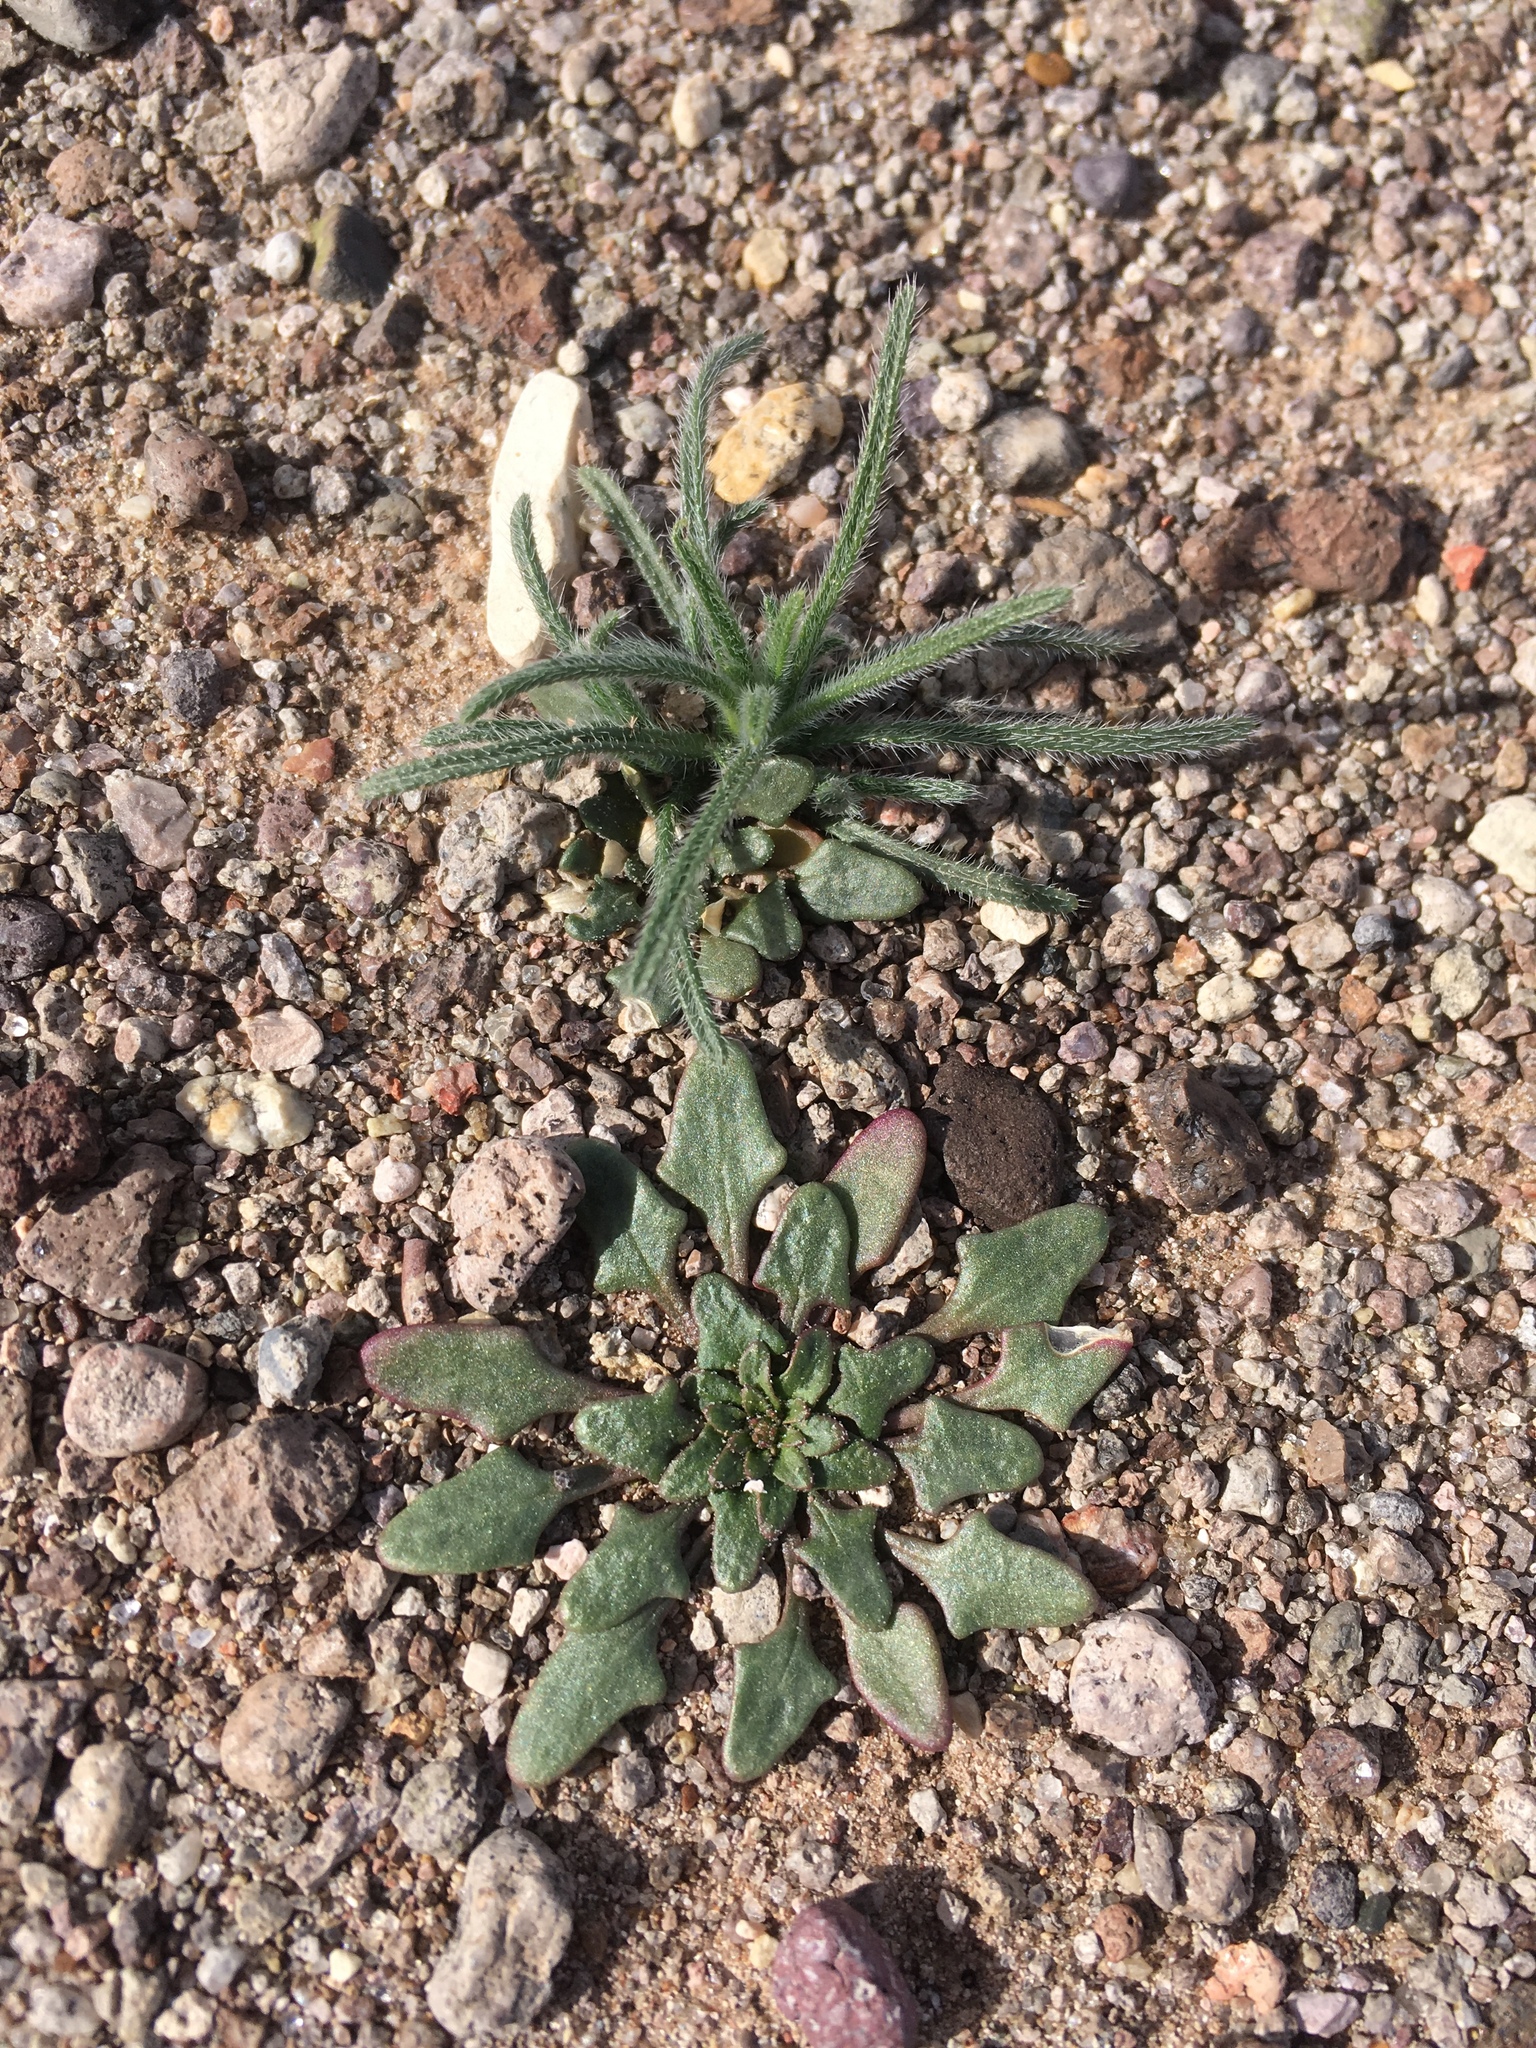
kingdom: Plantae
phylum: Tracheophyta
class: Magnoliopsida
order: Caryophyllales
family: Amaranthaceae
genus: Blitum
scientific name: Blitum nuttallianum
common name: Poverty-weed
